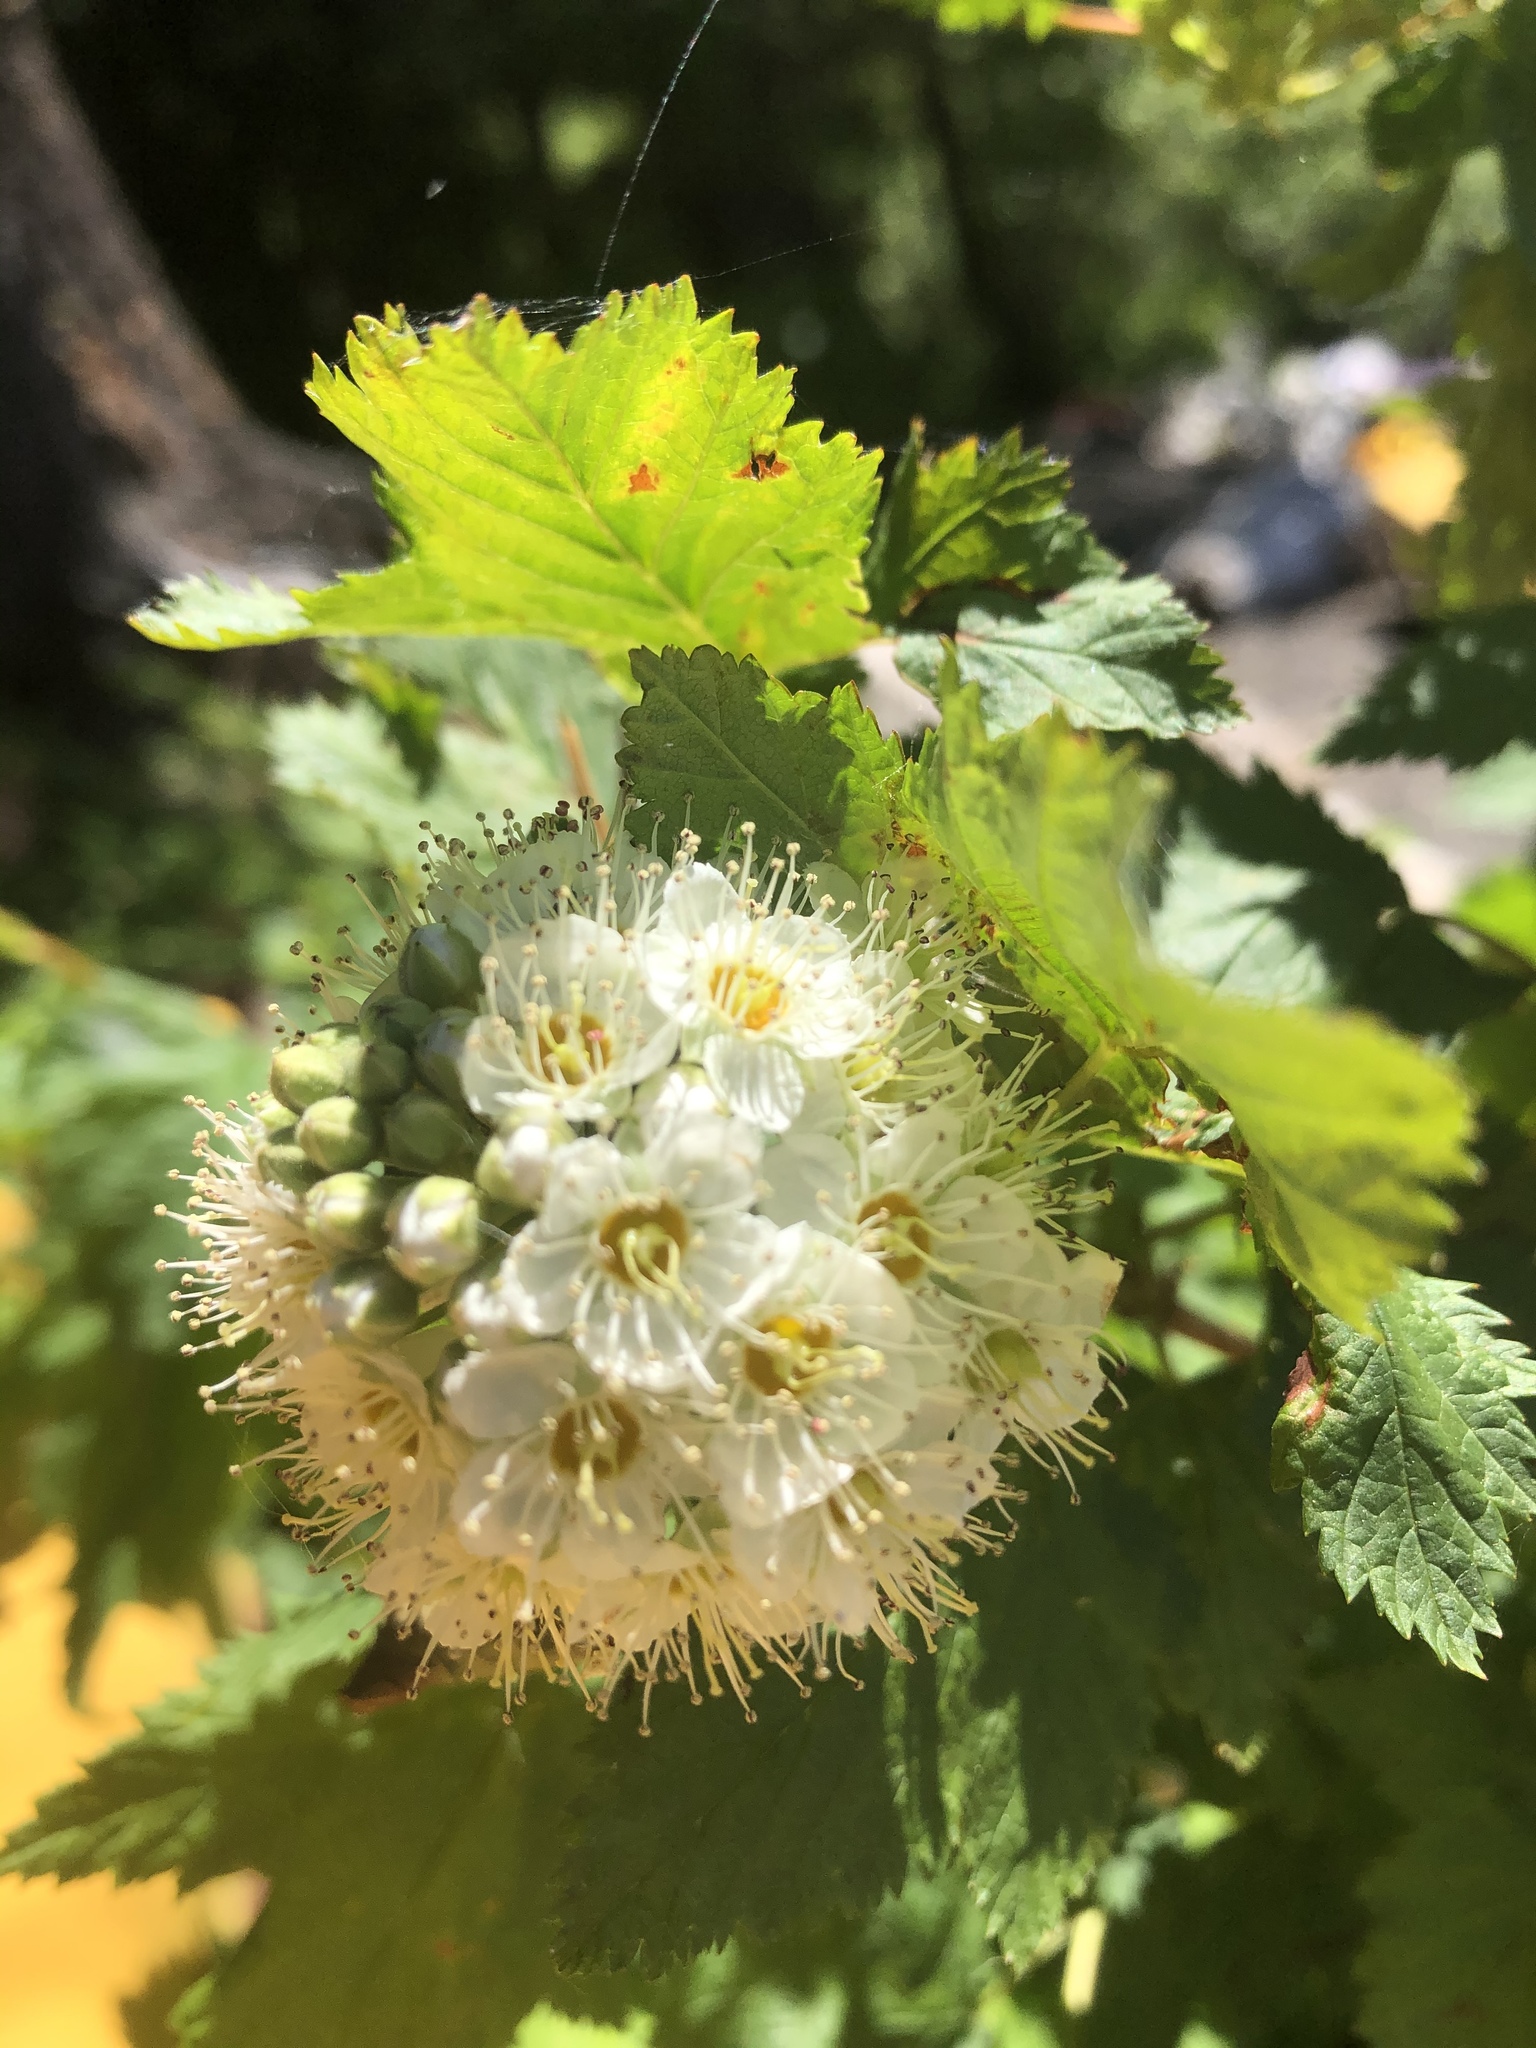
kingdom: Plantae
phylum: Tracheophyta
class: Magnoliopsida
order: Rosales
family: Rosaceae
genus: Physocarpus
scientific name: Physocarpus capitatus
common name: Pacific ninebark
